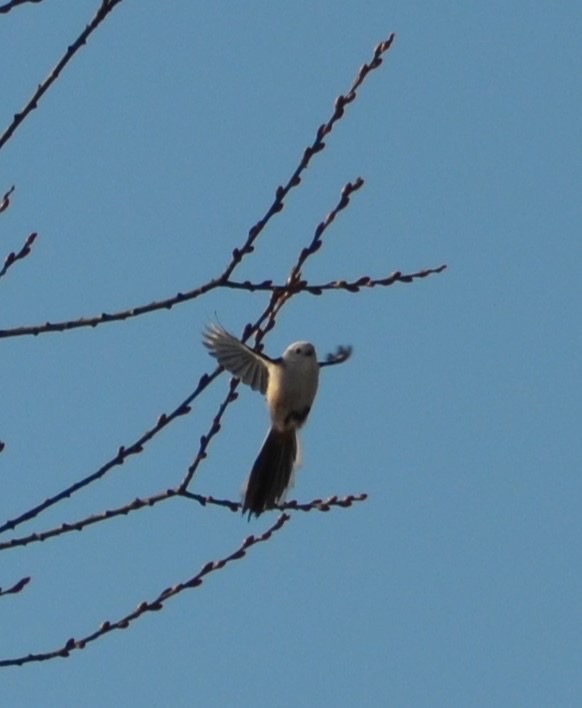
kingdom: Animalia
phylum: Chordata
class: Aves
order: Passeriformes
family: Aegithalidae
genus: Aegithalos
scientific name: Aegithalos caudatus
